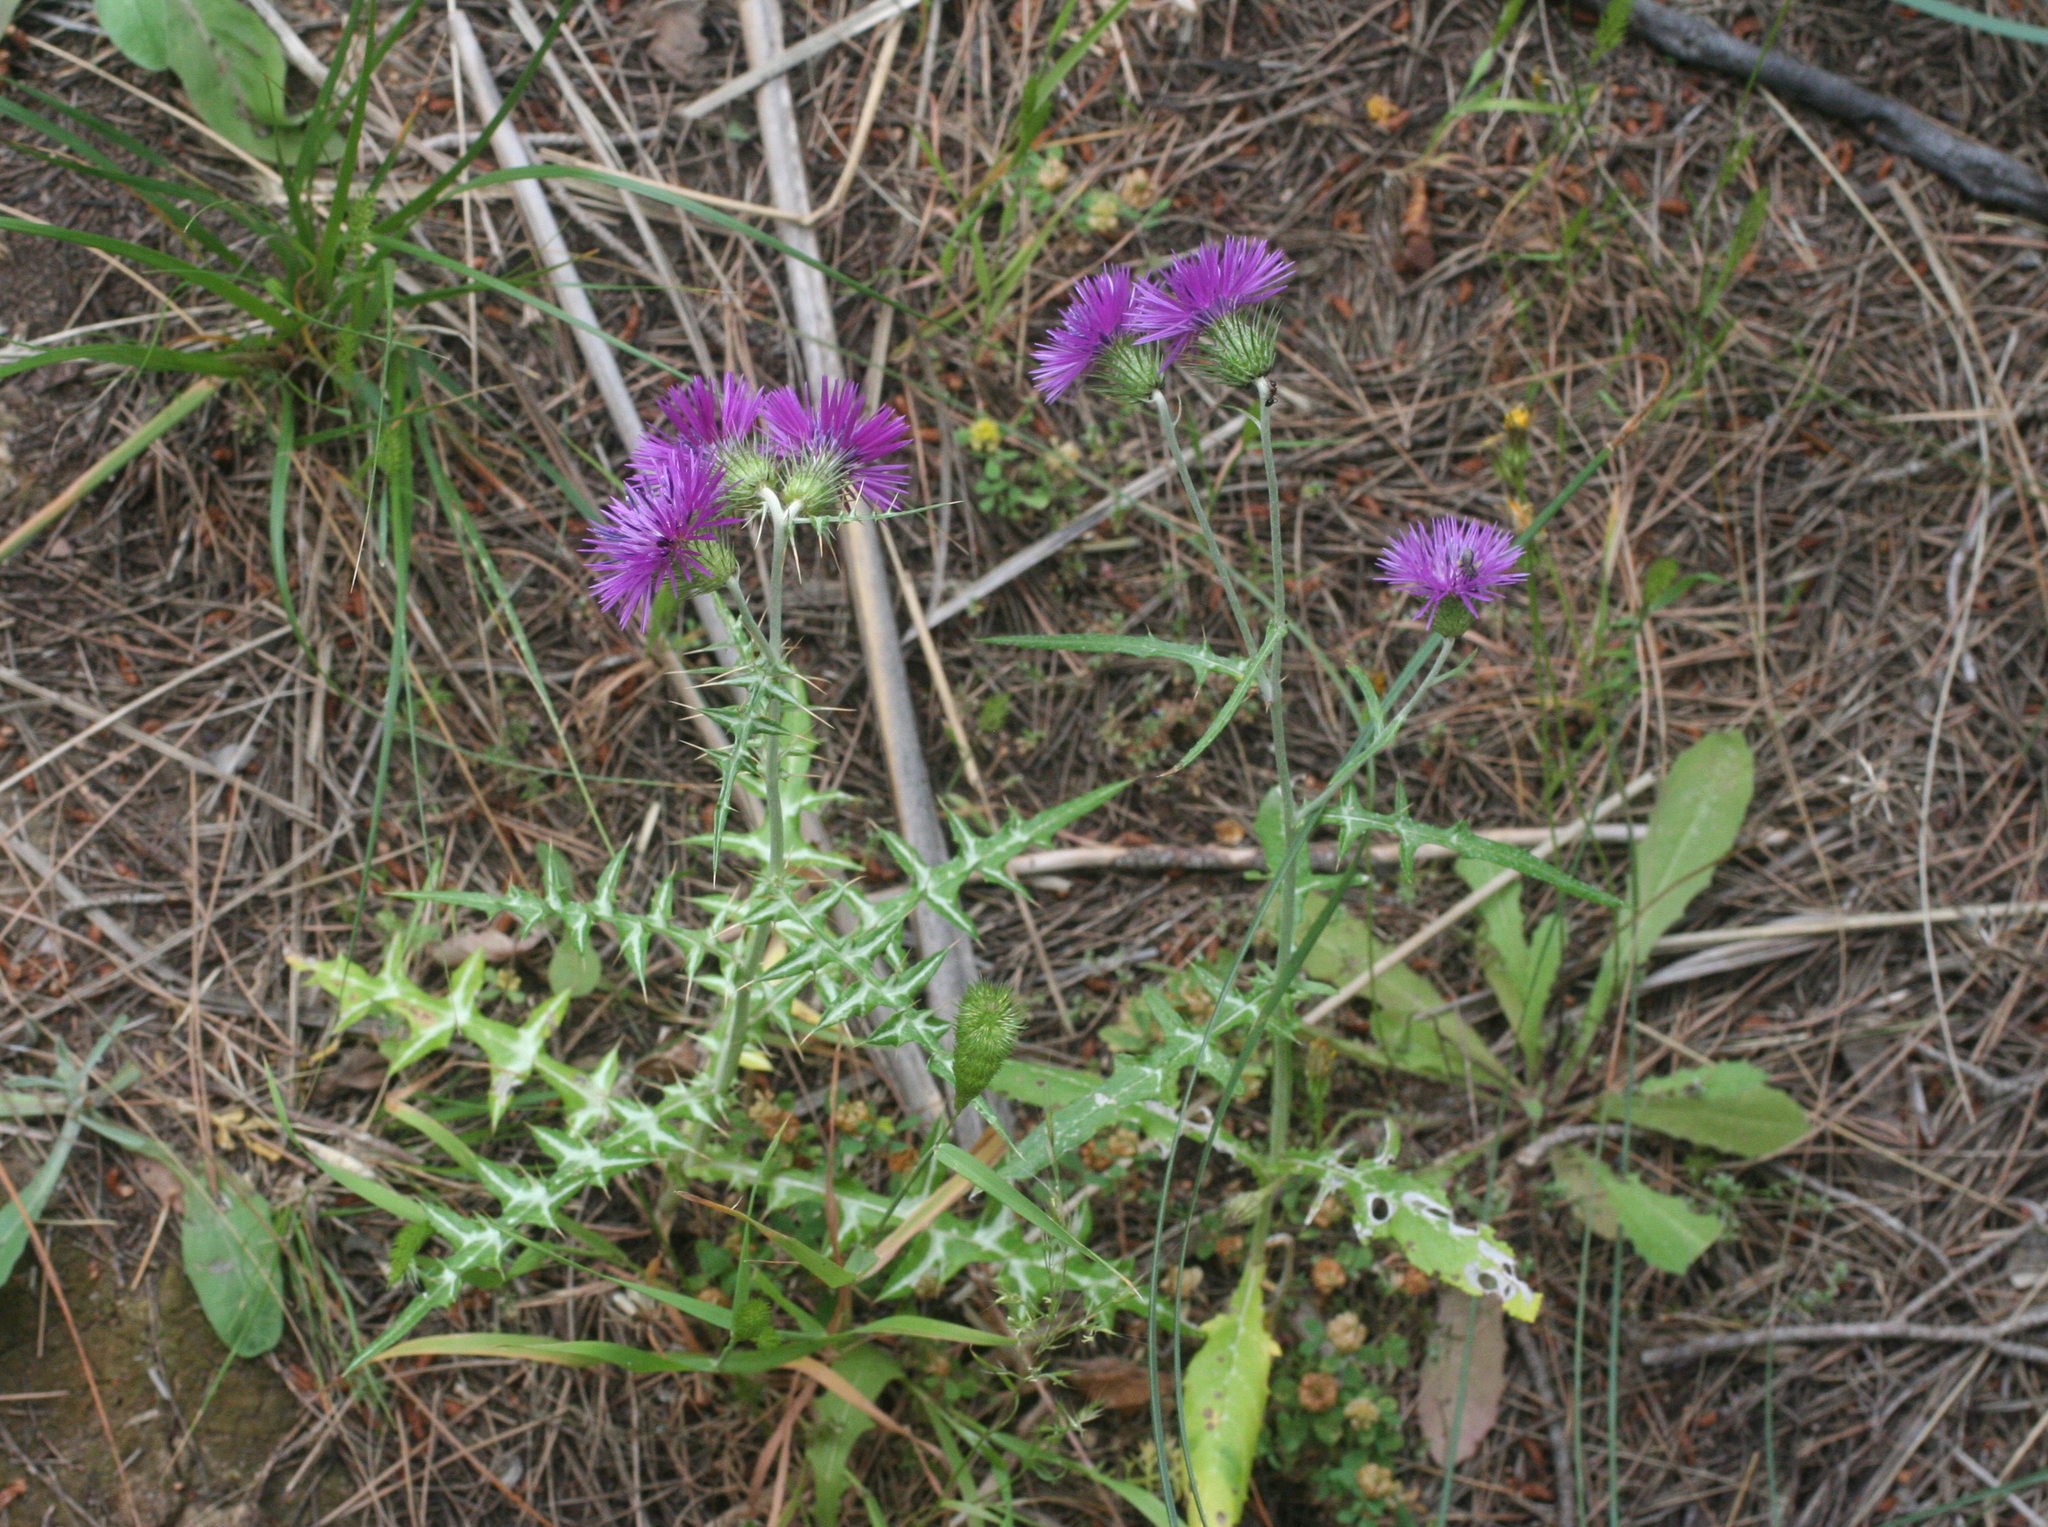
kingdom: Plantae
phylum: Tracheophyta
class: Magnoliopsida
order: Asterales
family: Asteraceae
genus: Galactites
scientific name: Galactites tomentosa
